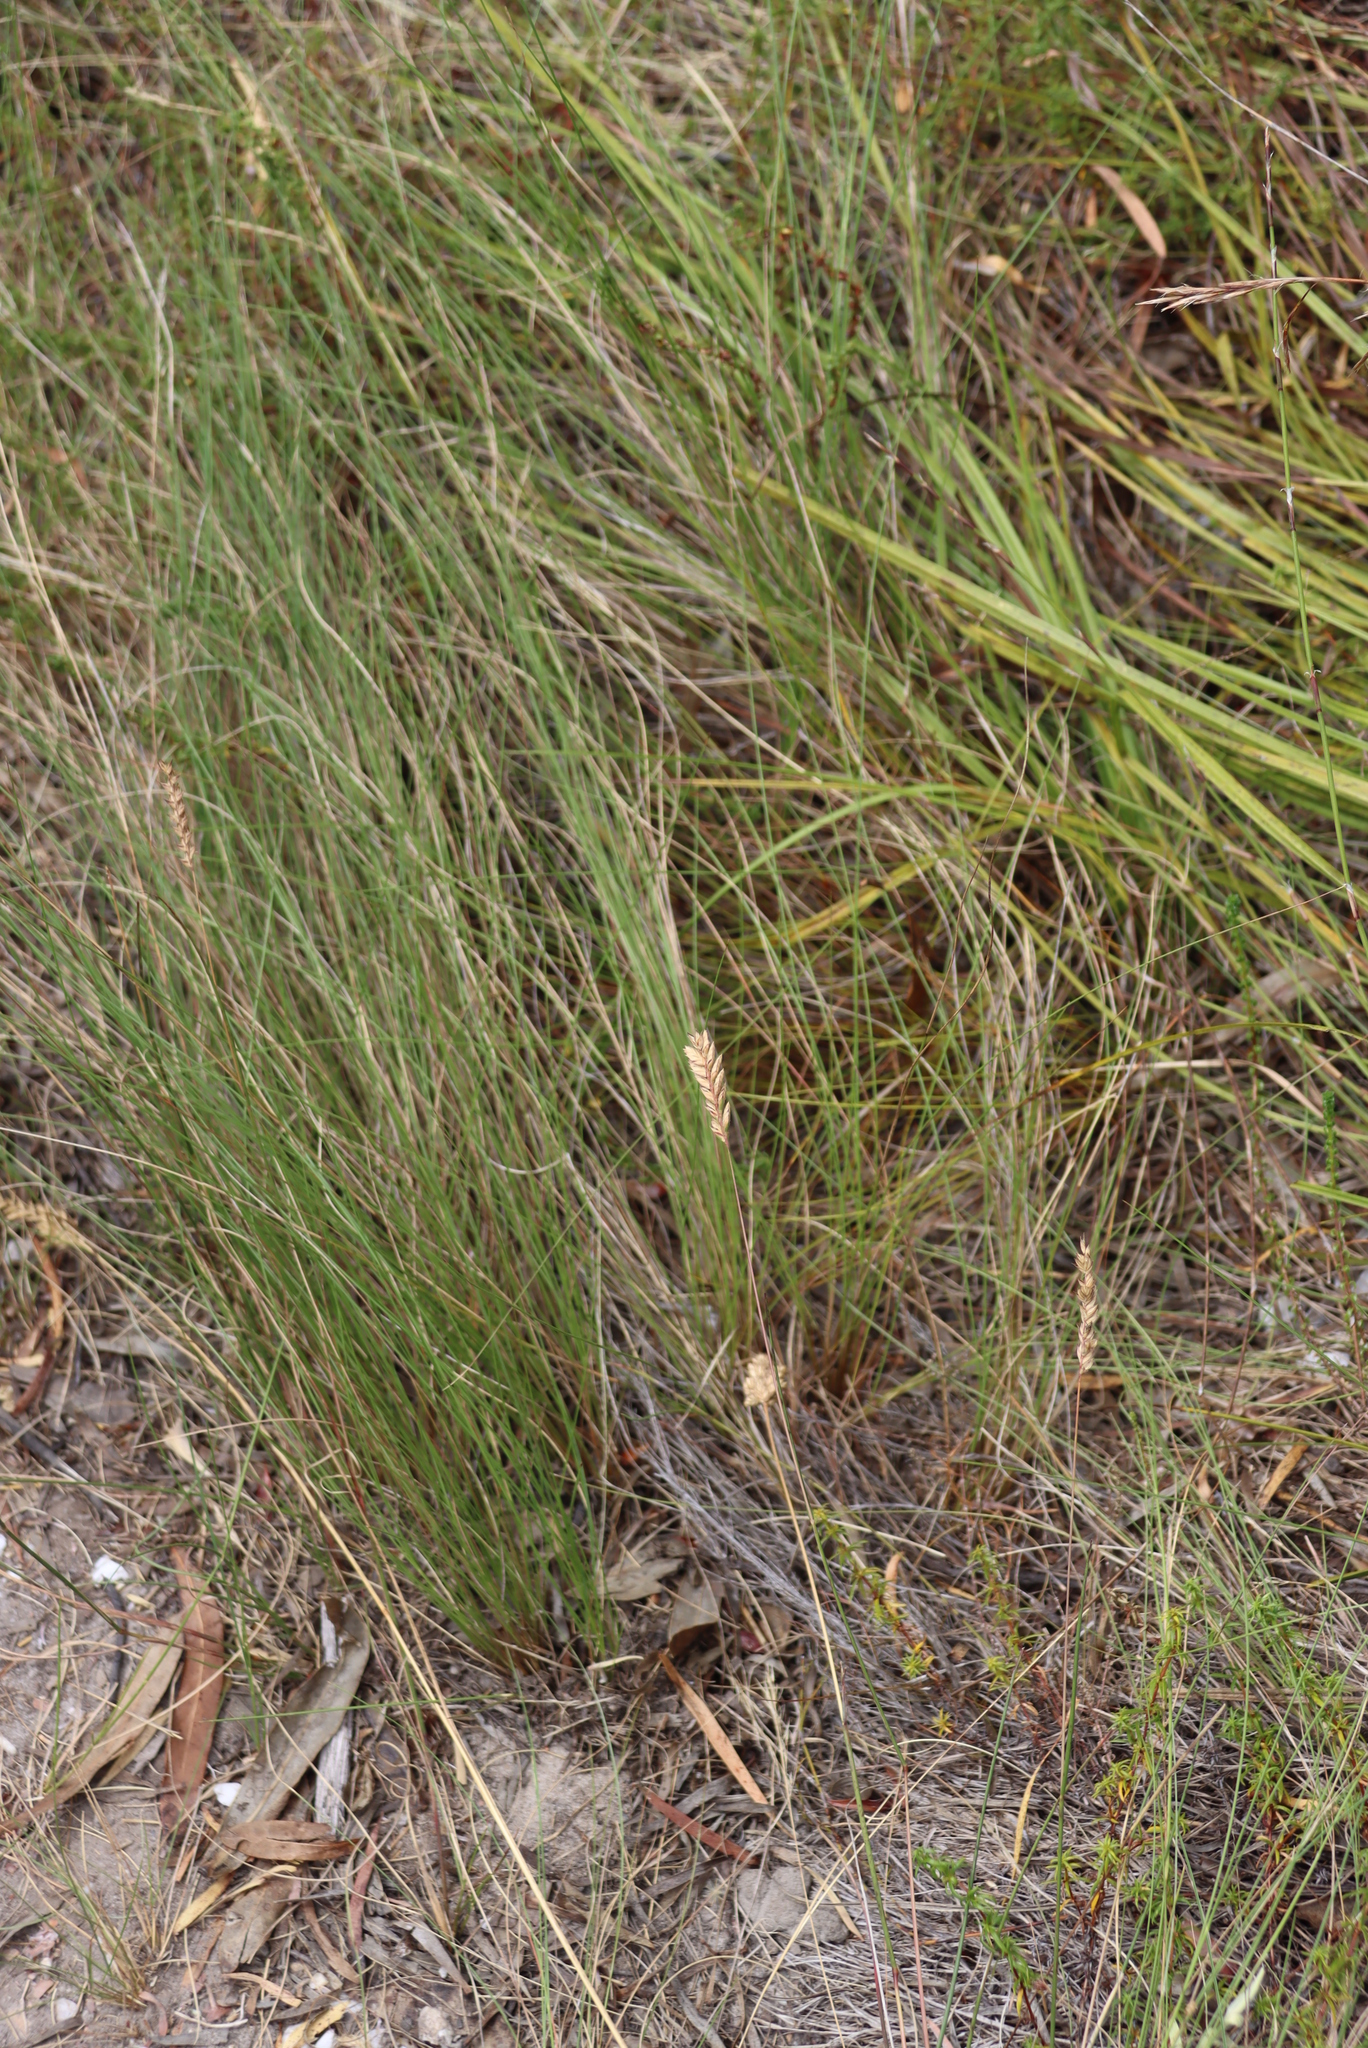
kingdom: Plantae
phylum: Tracheophyta
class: Liliopsida
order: Poales
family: Poaceae
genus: Tribolium
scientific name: Tribolium uniolae
